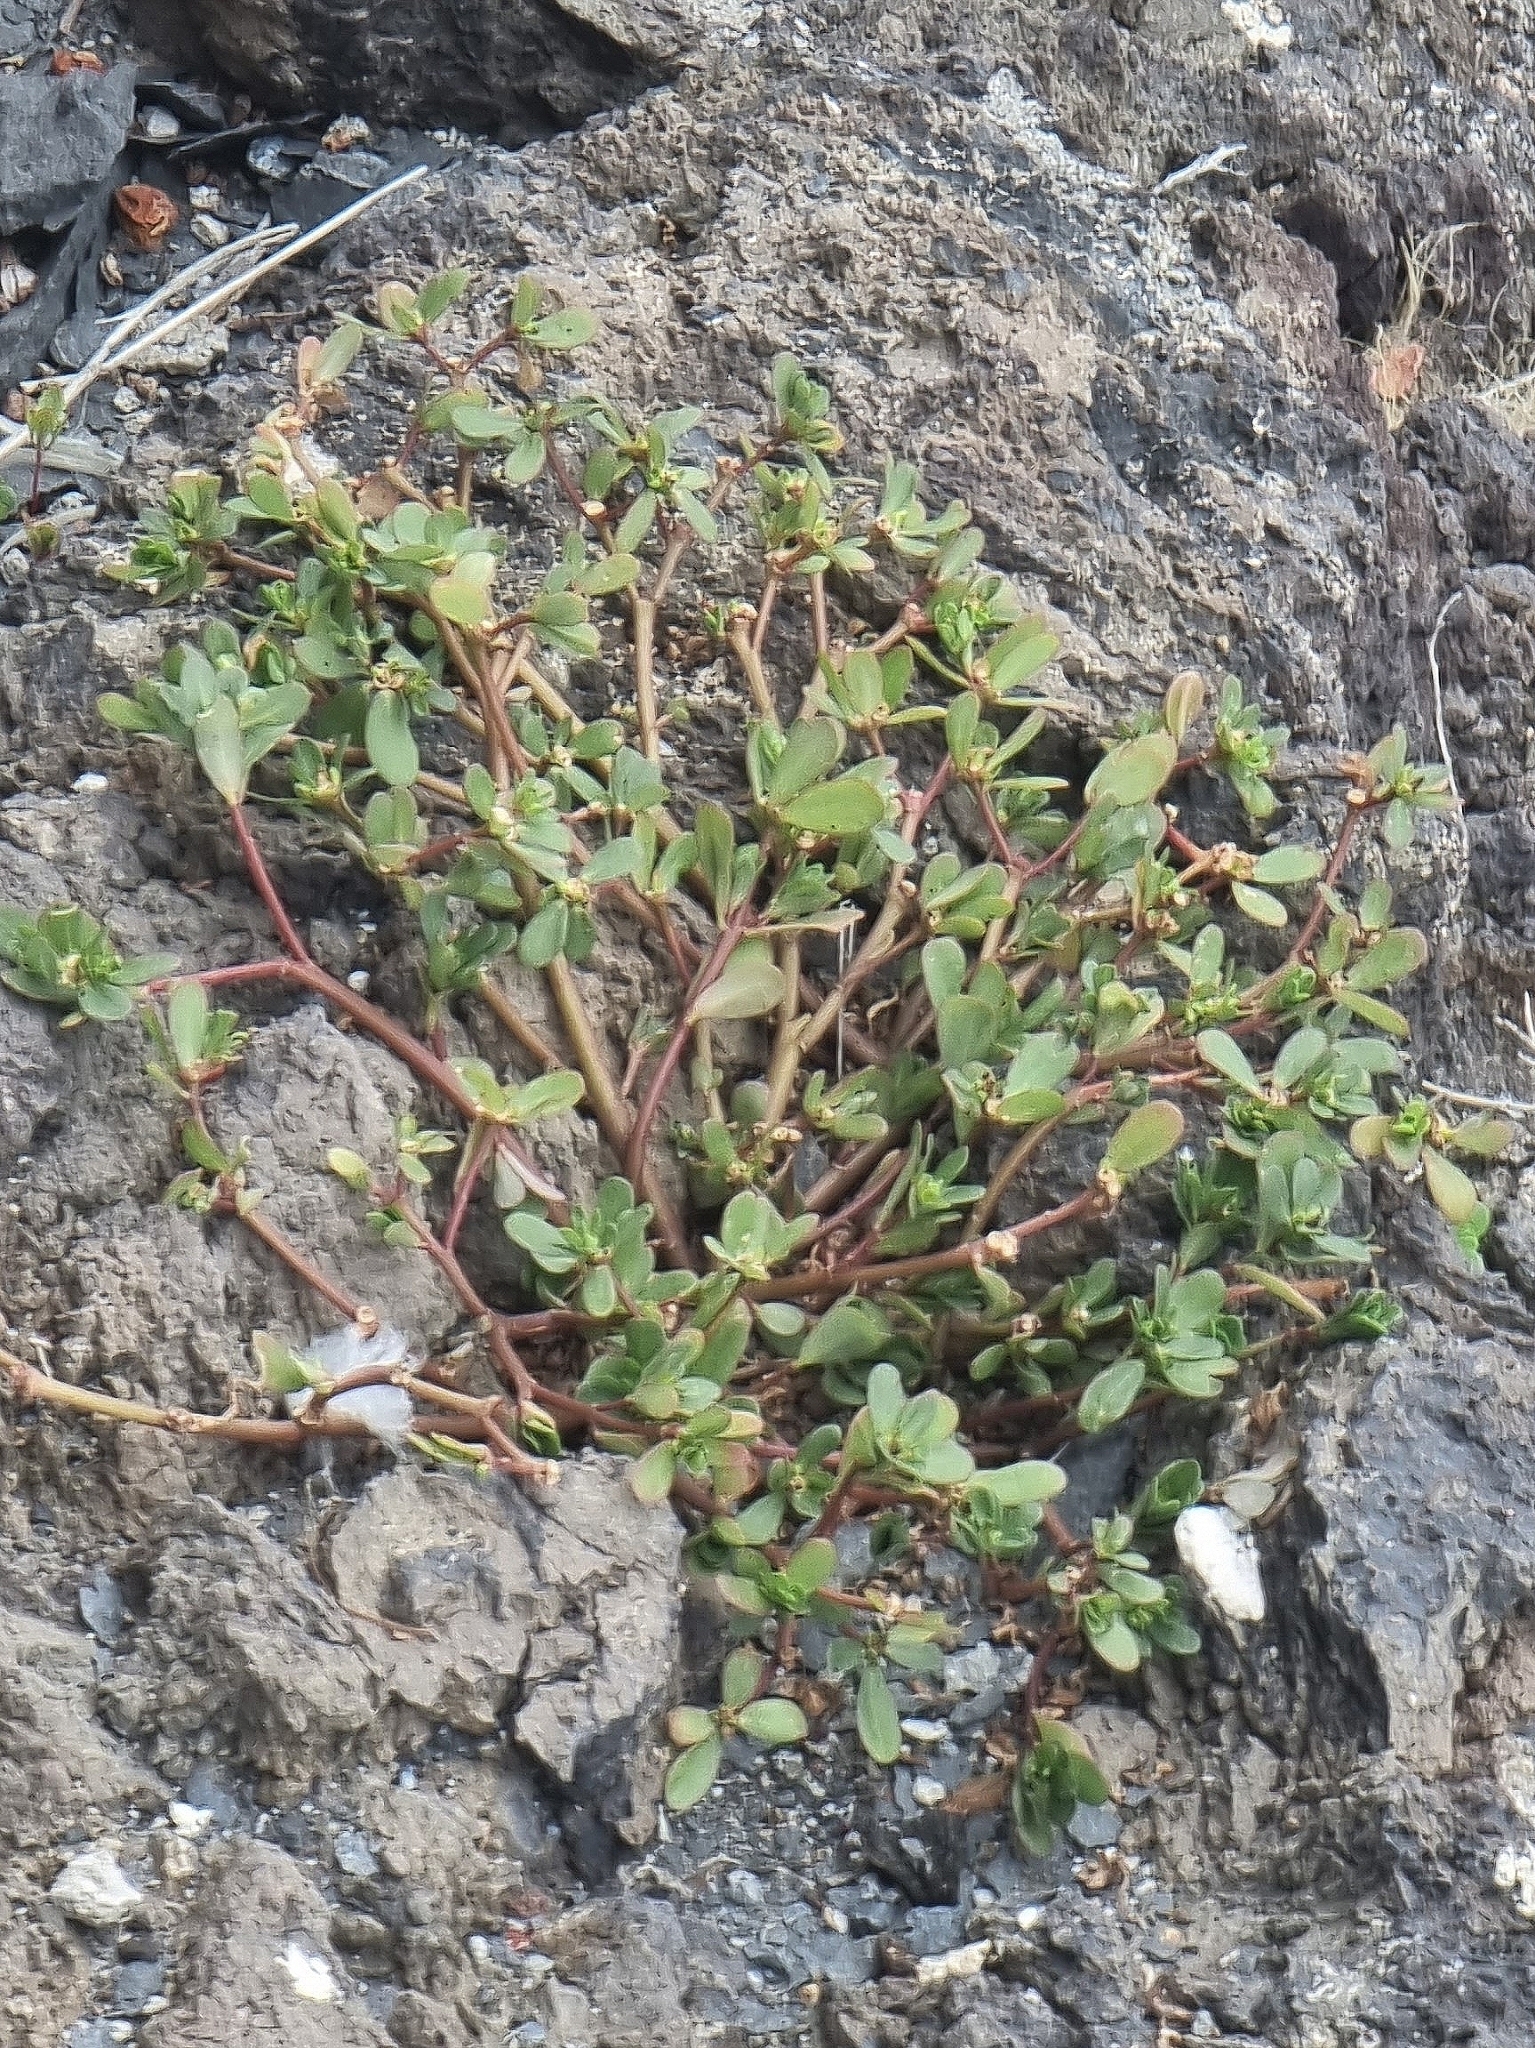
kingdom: Plantae
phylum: Tracheophyta
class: Magnoliopsida
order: Caryophyllales
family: Portulacaceae
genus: Portulaca
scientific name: Portulaca oleracea
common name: Common purslane
